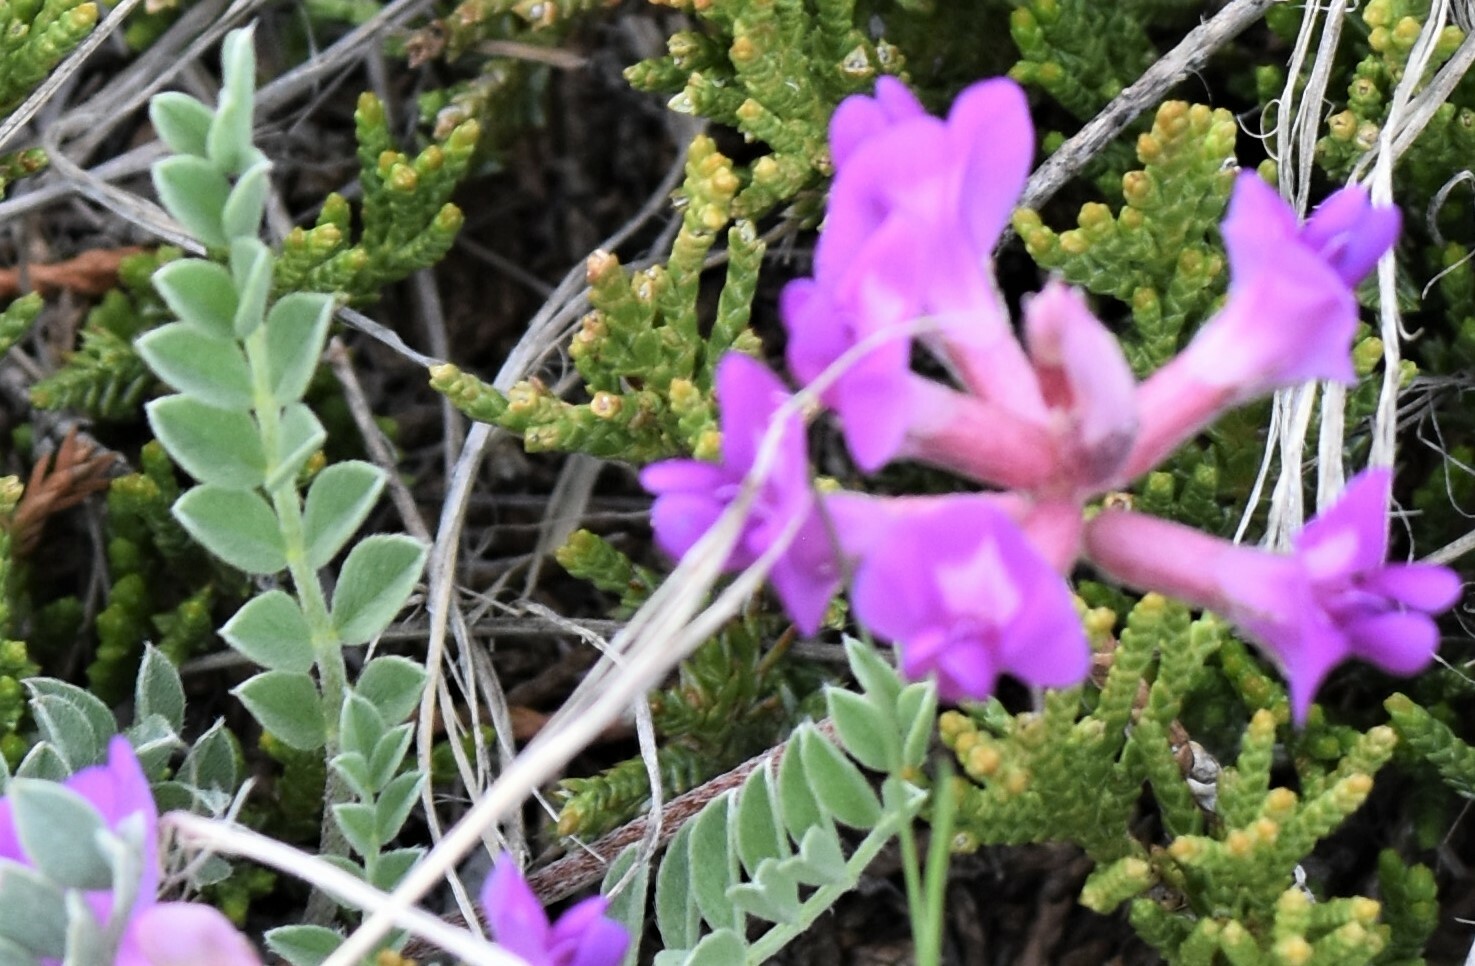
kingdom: Plantae
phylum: Tracheophyta
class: Magnoliopsida
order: Fabales
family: Fabaceae
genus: Astragalus
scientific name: Astragalus missouriensis
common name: Missouri milk-vetch
